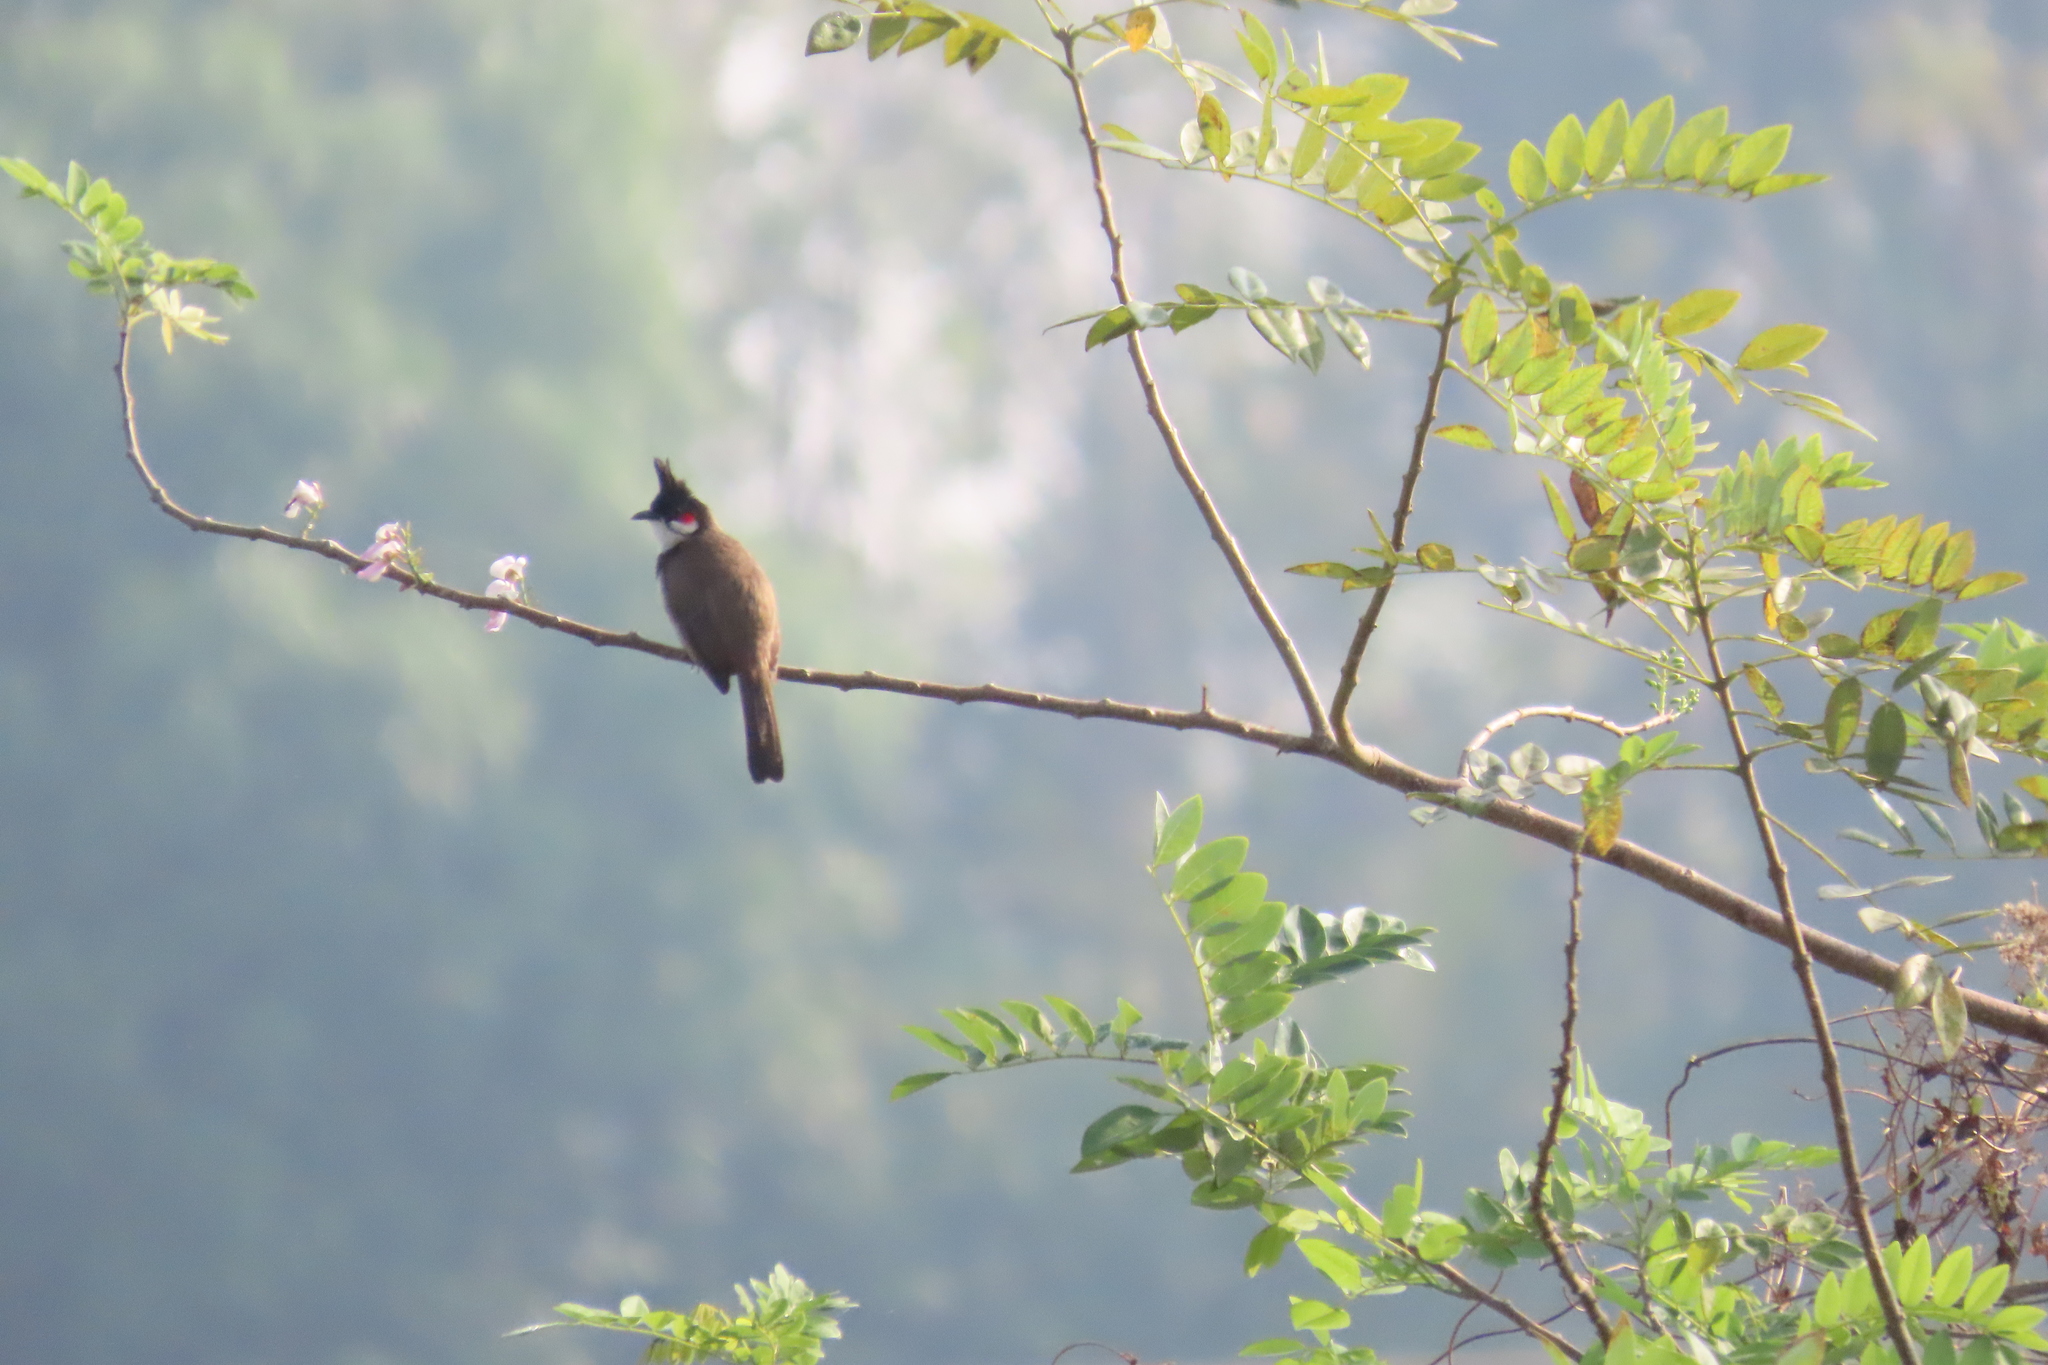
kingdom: Plantae
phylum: Tracheophyta
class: Magnoliopsida
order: Fabales
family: Fabaceae
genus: Gliricidia
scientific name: Gliricidia sepium
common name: Quickstick
